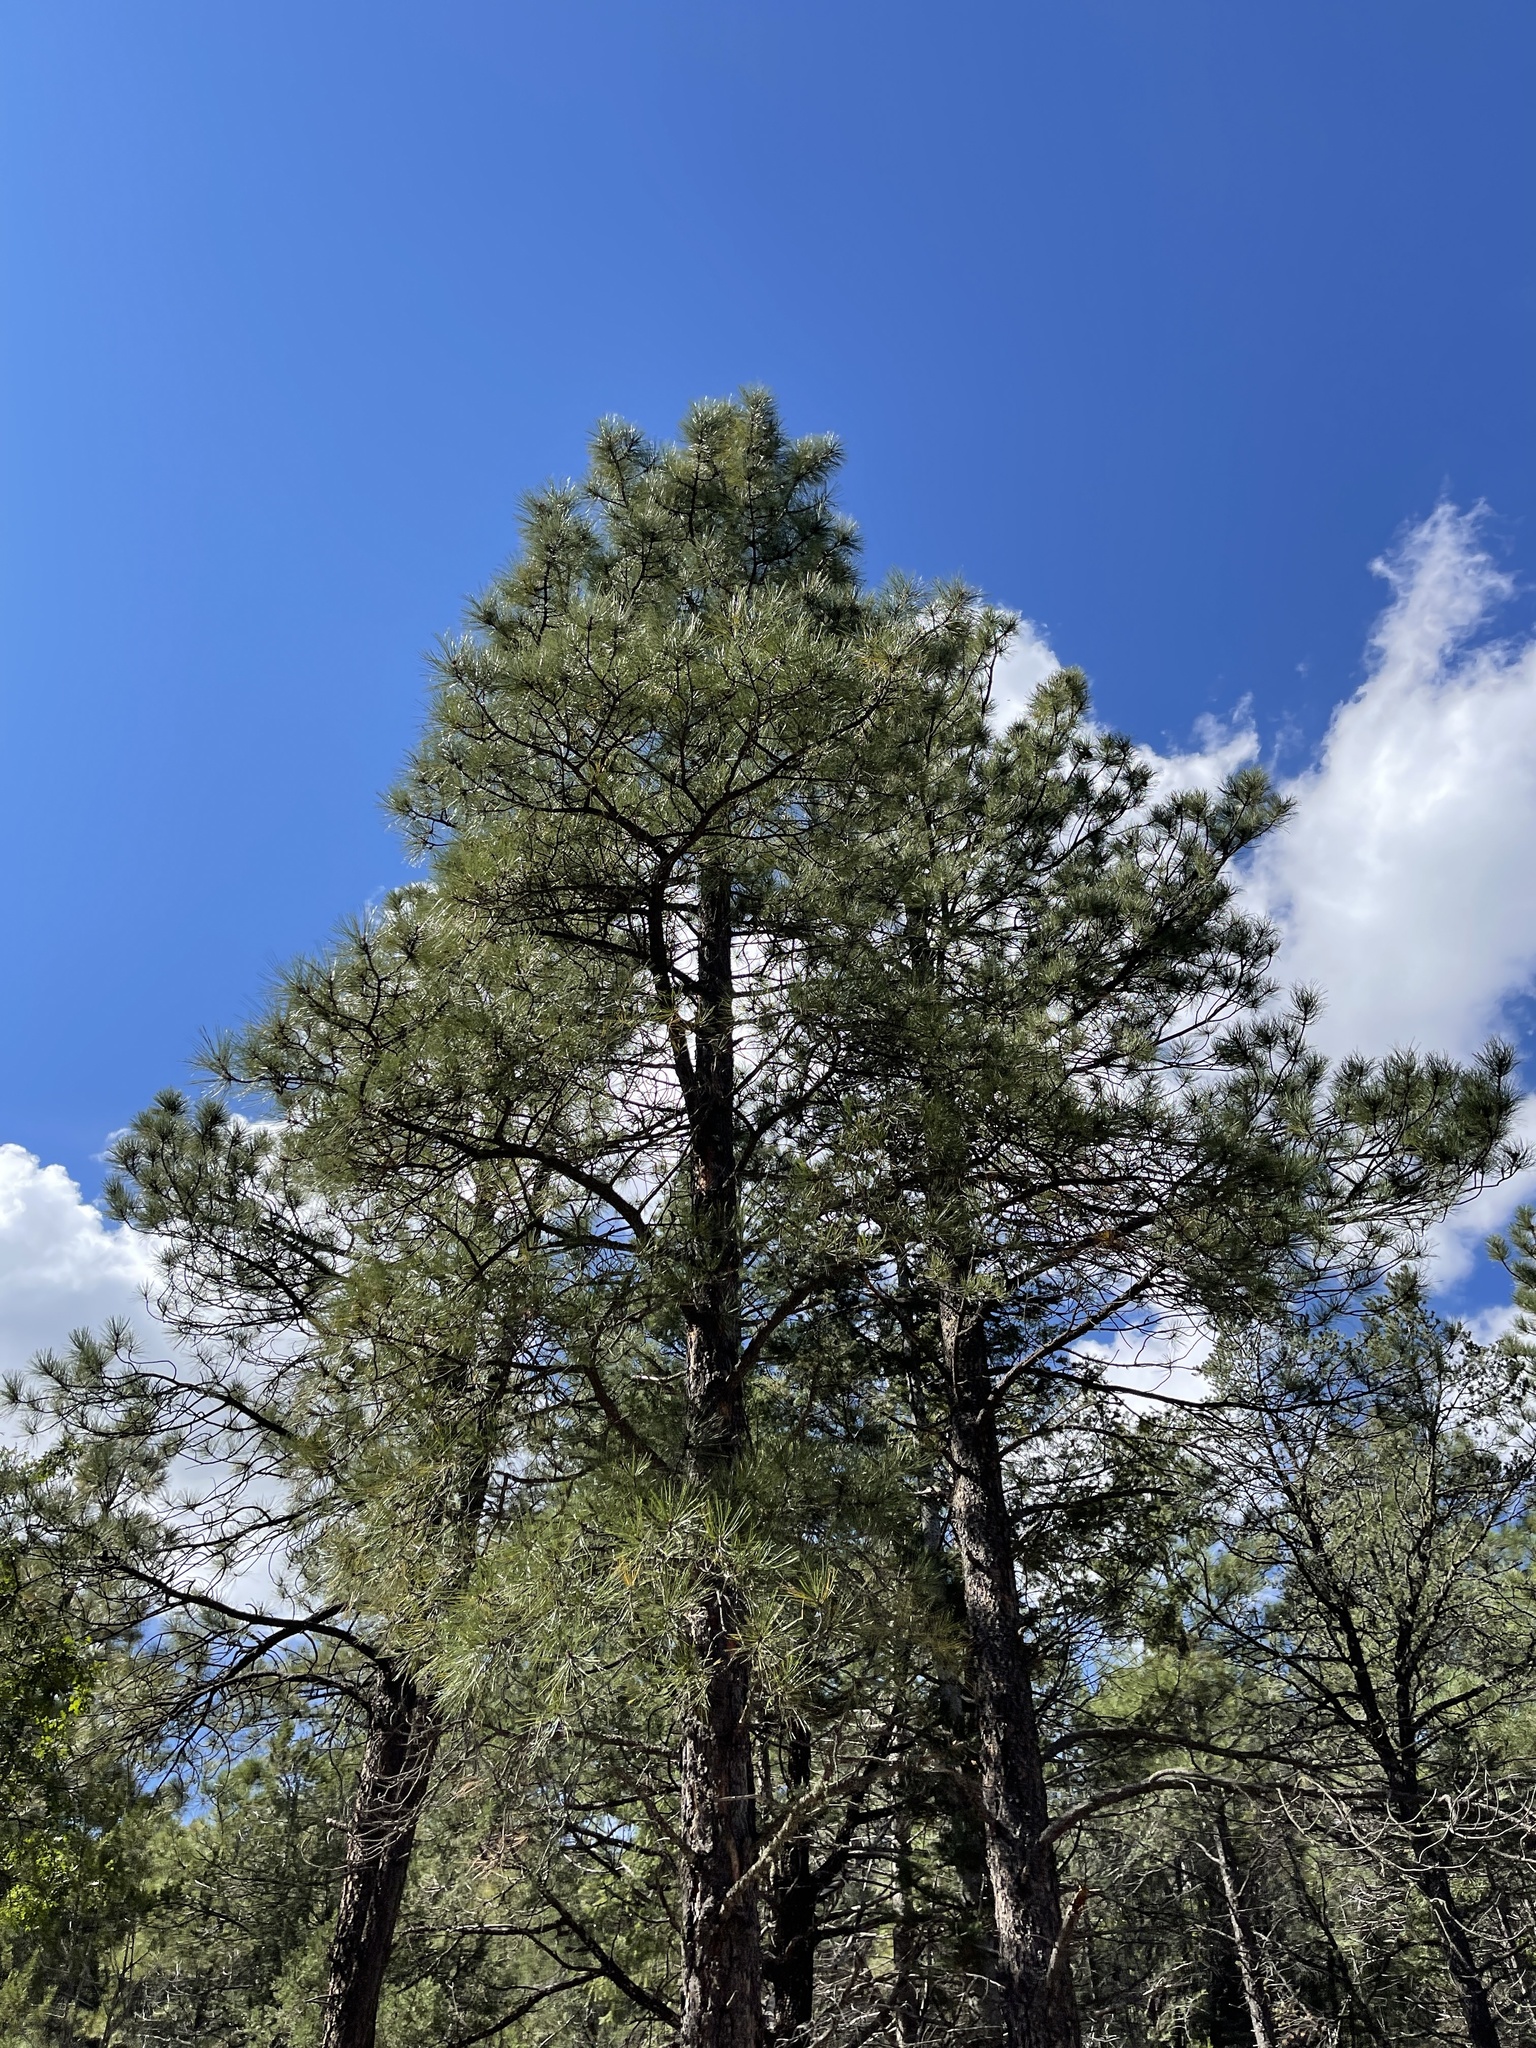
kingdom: Plantae
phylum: Tracheophyta
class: Pinopsida
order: Pinales
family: Pinaceae
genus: Pinus
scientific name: Pinus ponderosa
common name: Western yellow-pine
